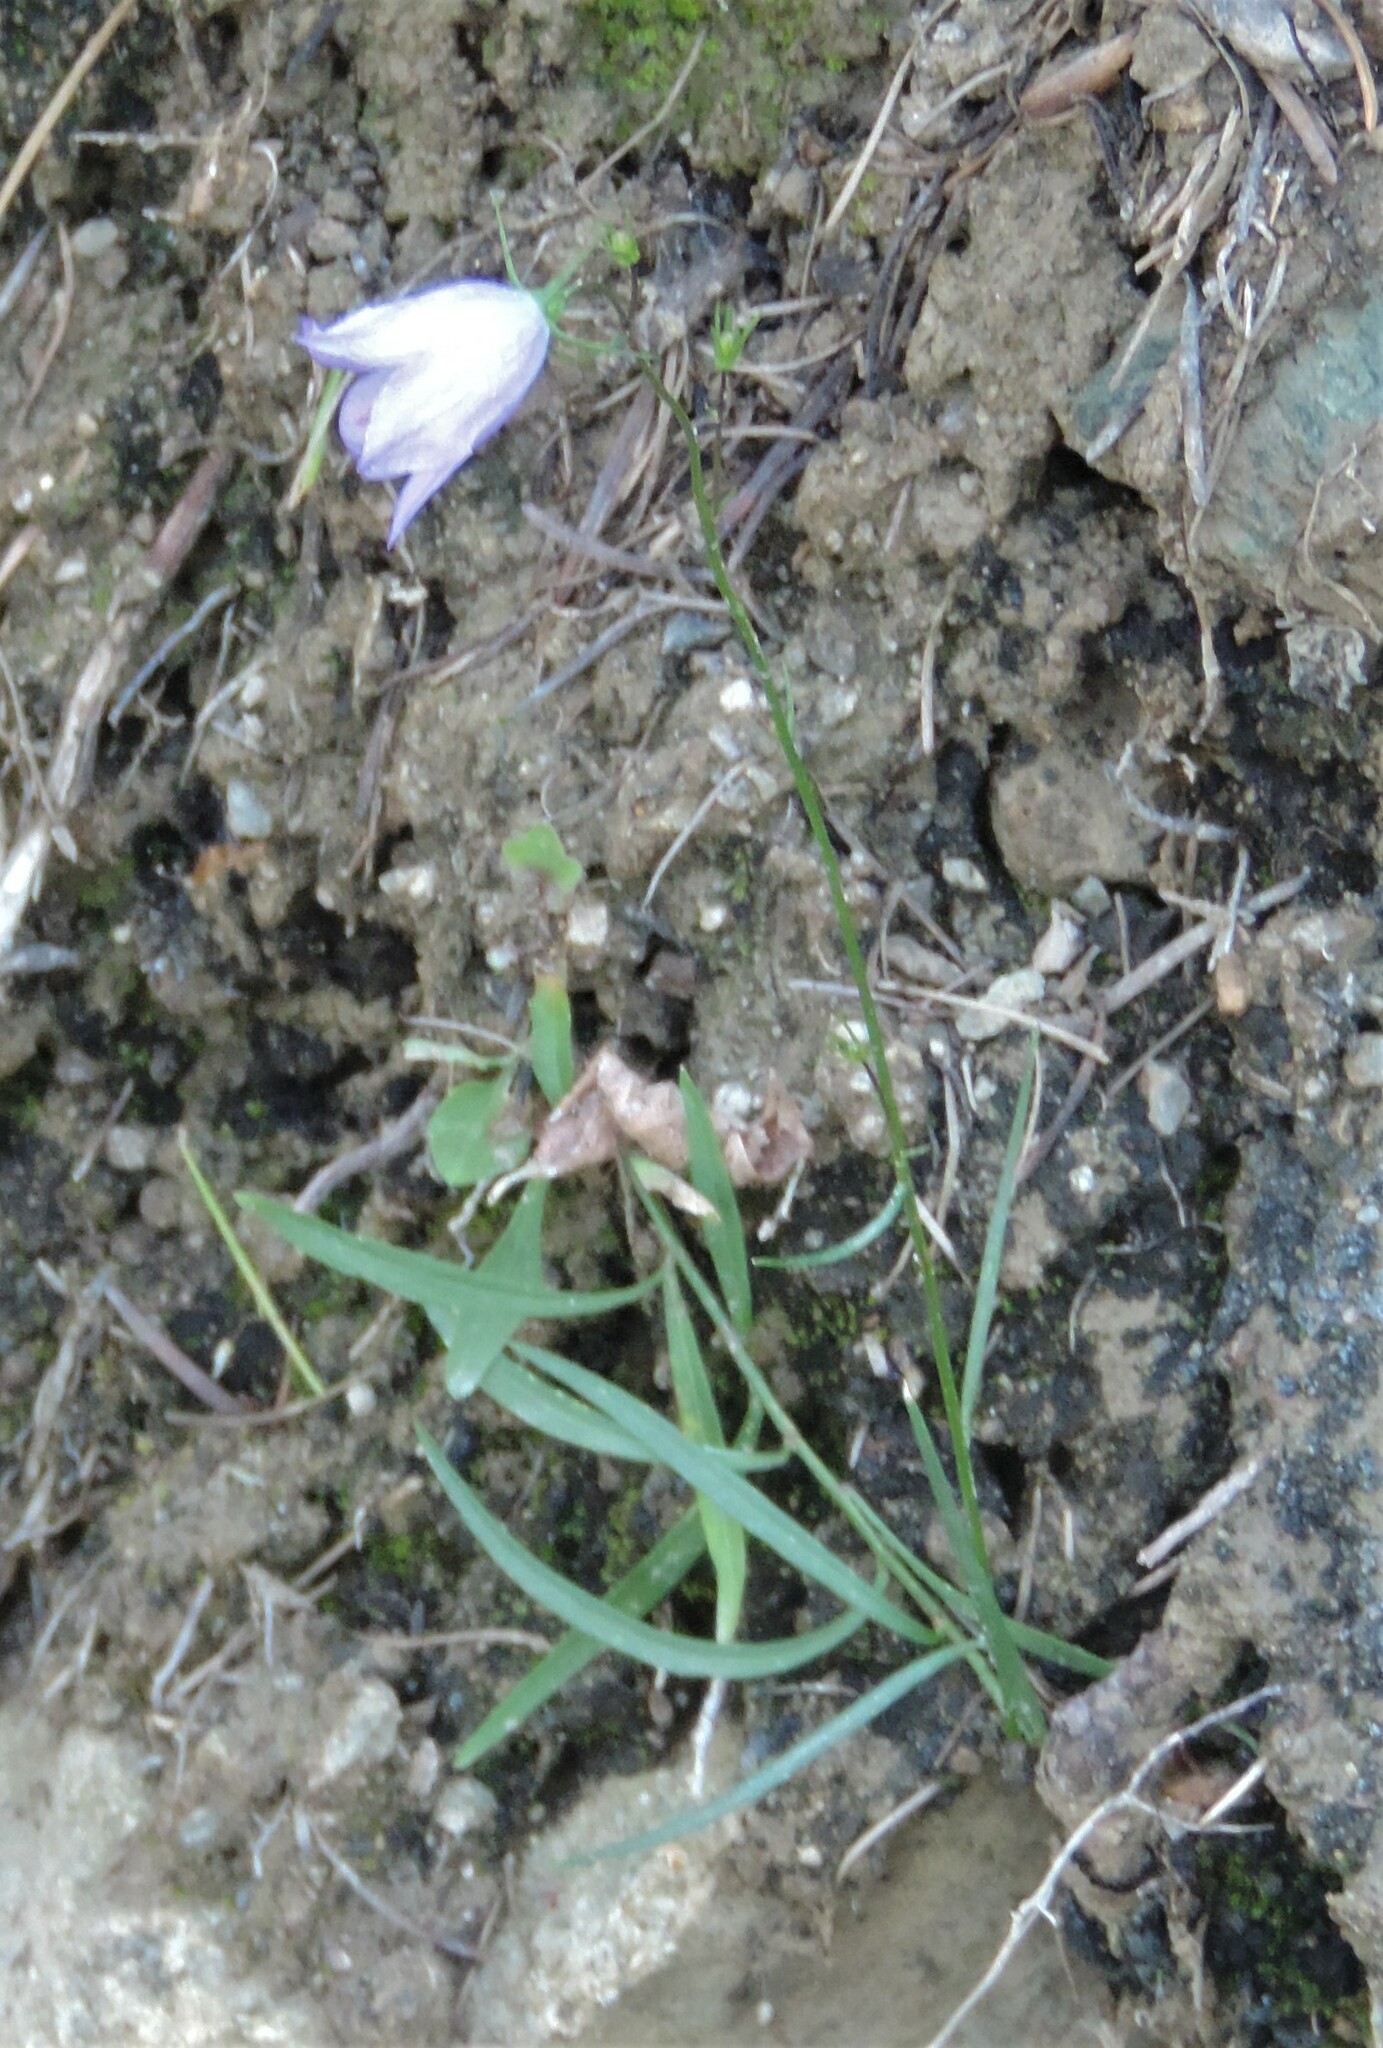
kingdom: Plantae
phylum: Tracheophyta
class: Magnoliopsida
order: Asterales
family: Campanulaceae
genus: Campanula
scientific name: Campanula alaskana
